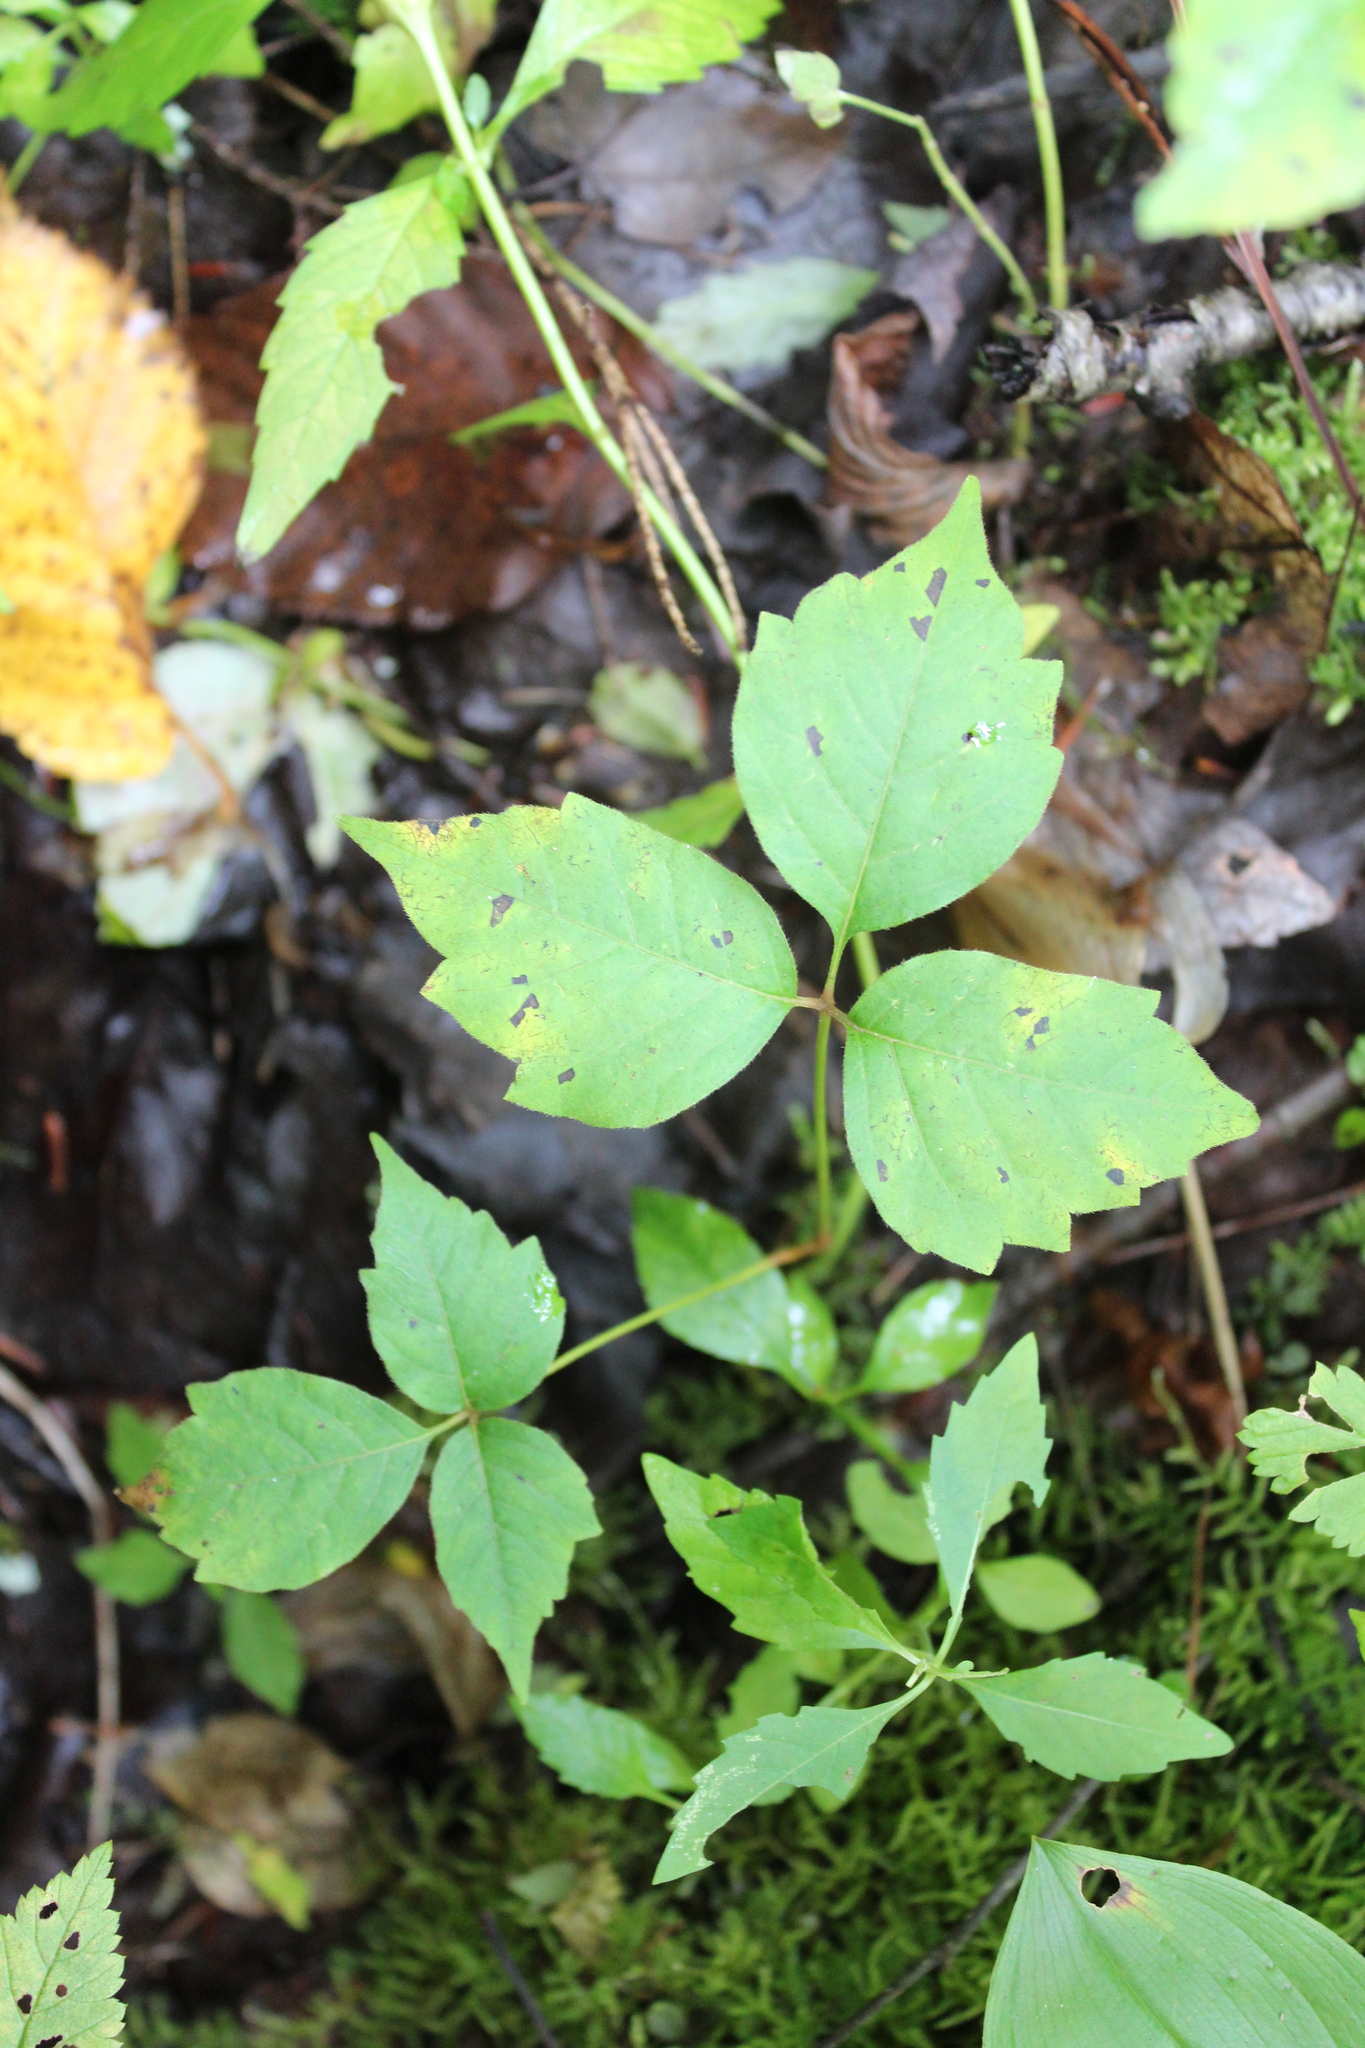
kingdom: Plantae
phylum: Tracheophyta
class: Magnoliopsida
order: Sapindales
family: Anacardiaceae
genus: Toxicodendron
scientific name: Toxicodendron radicans
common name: Poison ivy
